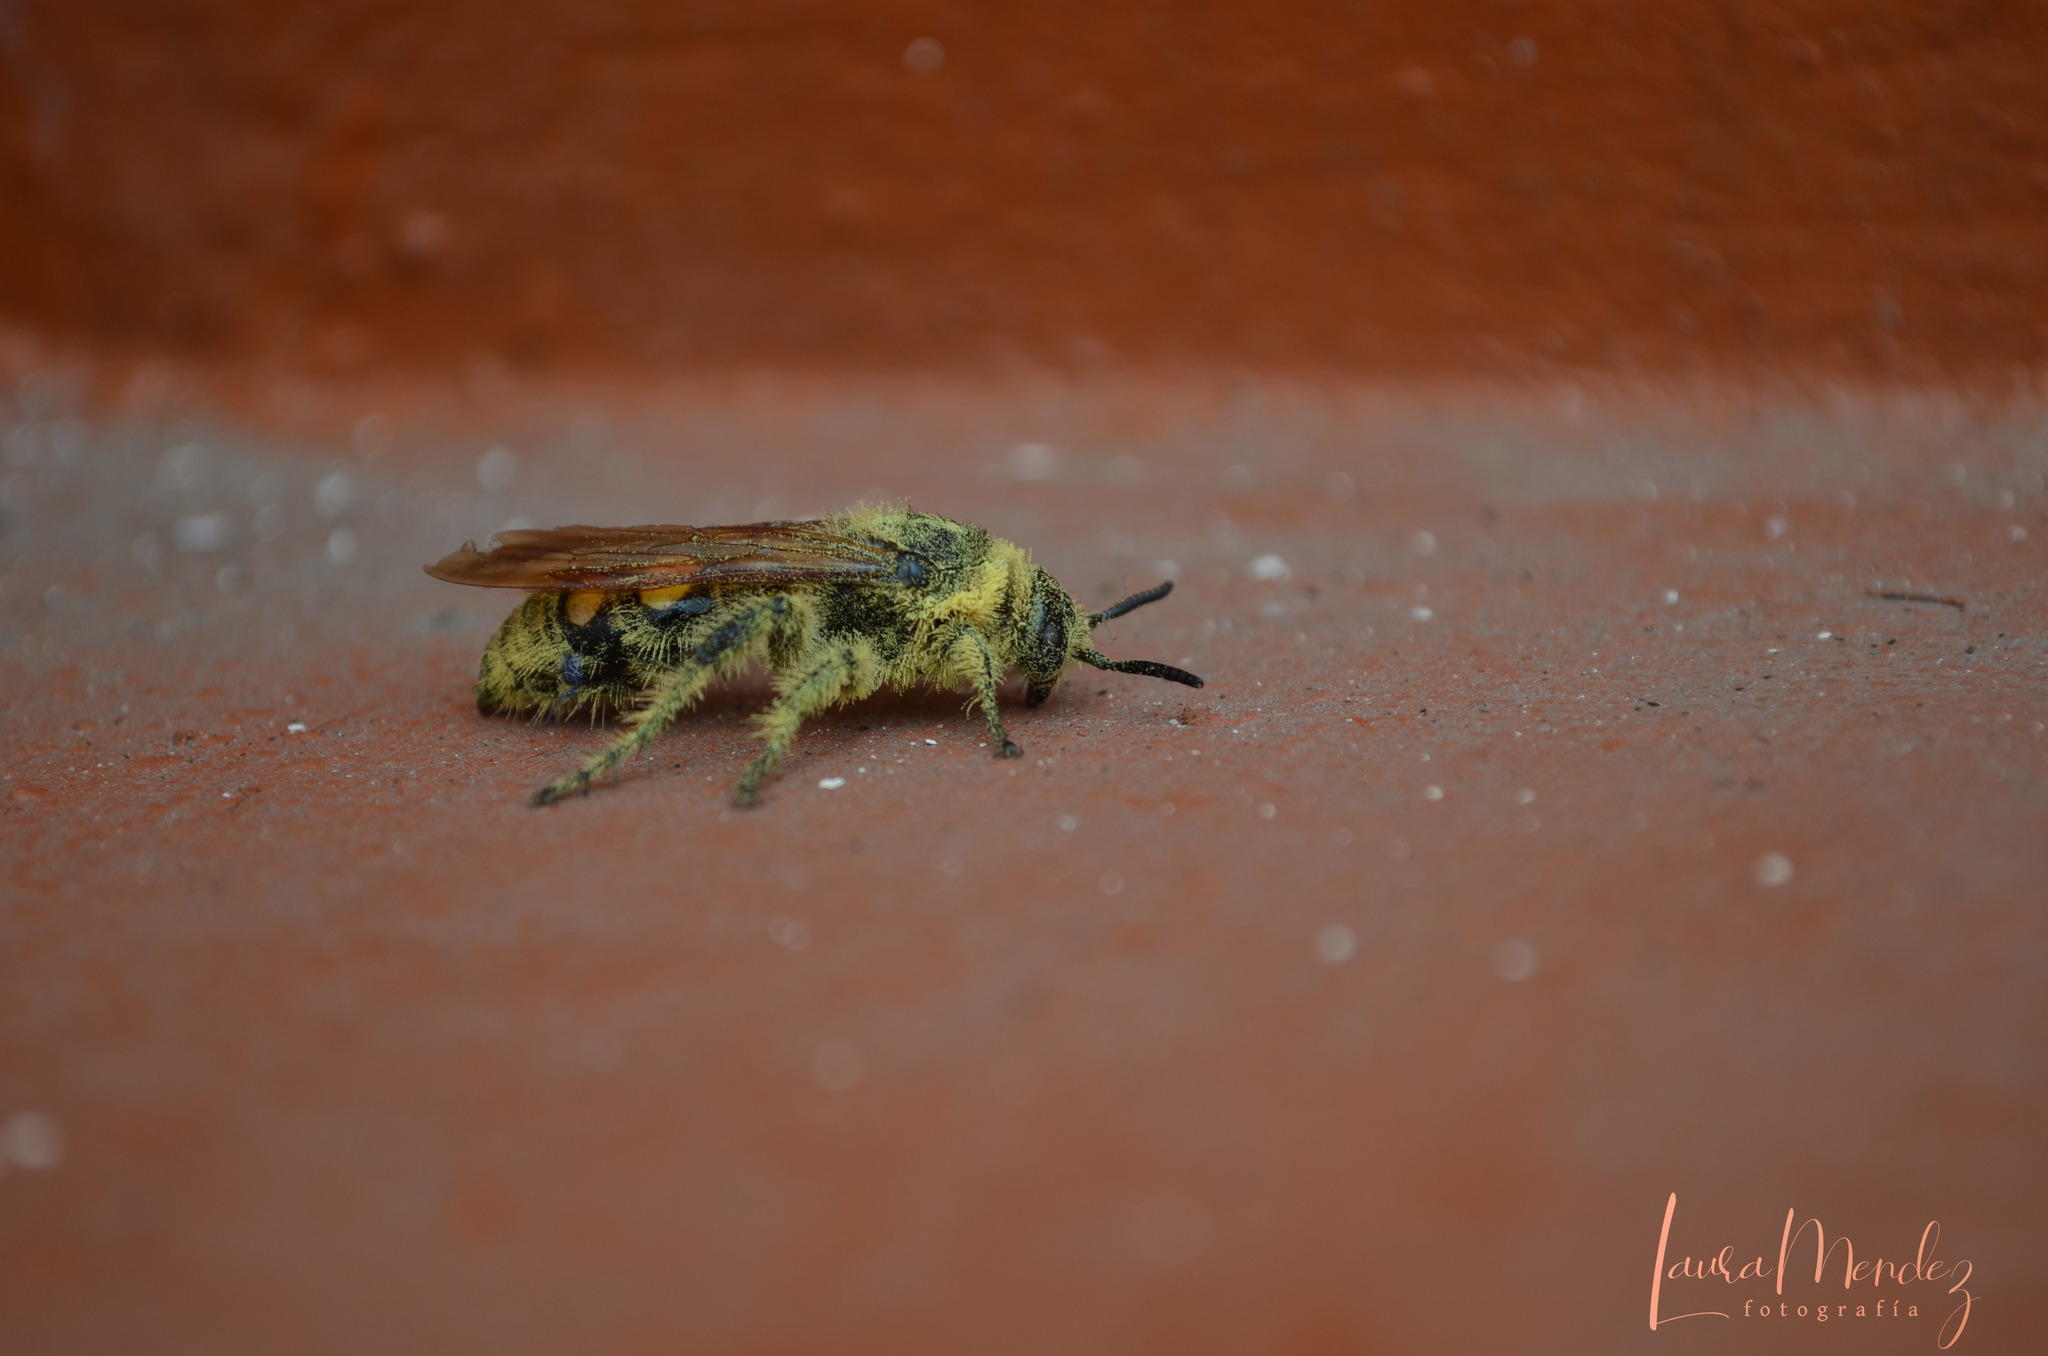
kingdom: Animalia
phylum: Arthropoda
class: Insecta
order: Hymenoptera
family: Scoliidae
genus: Pygodasis
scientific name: Pygodasis
